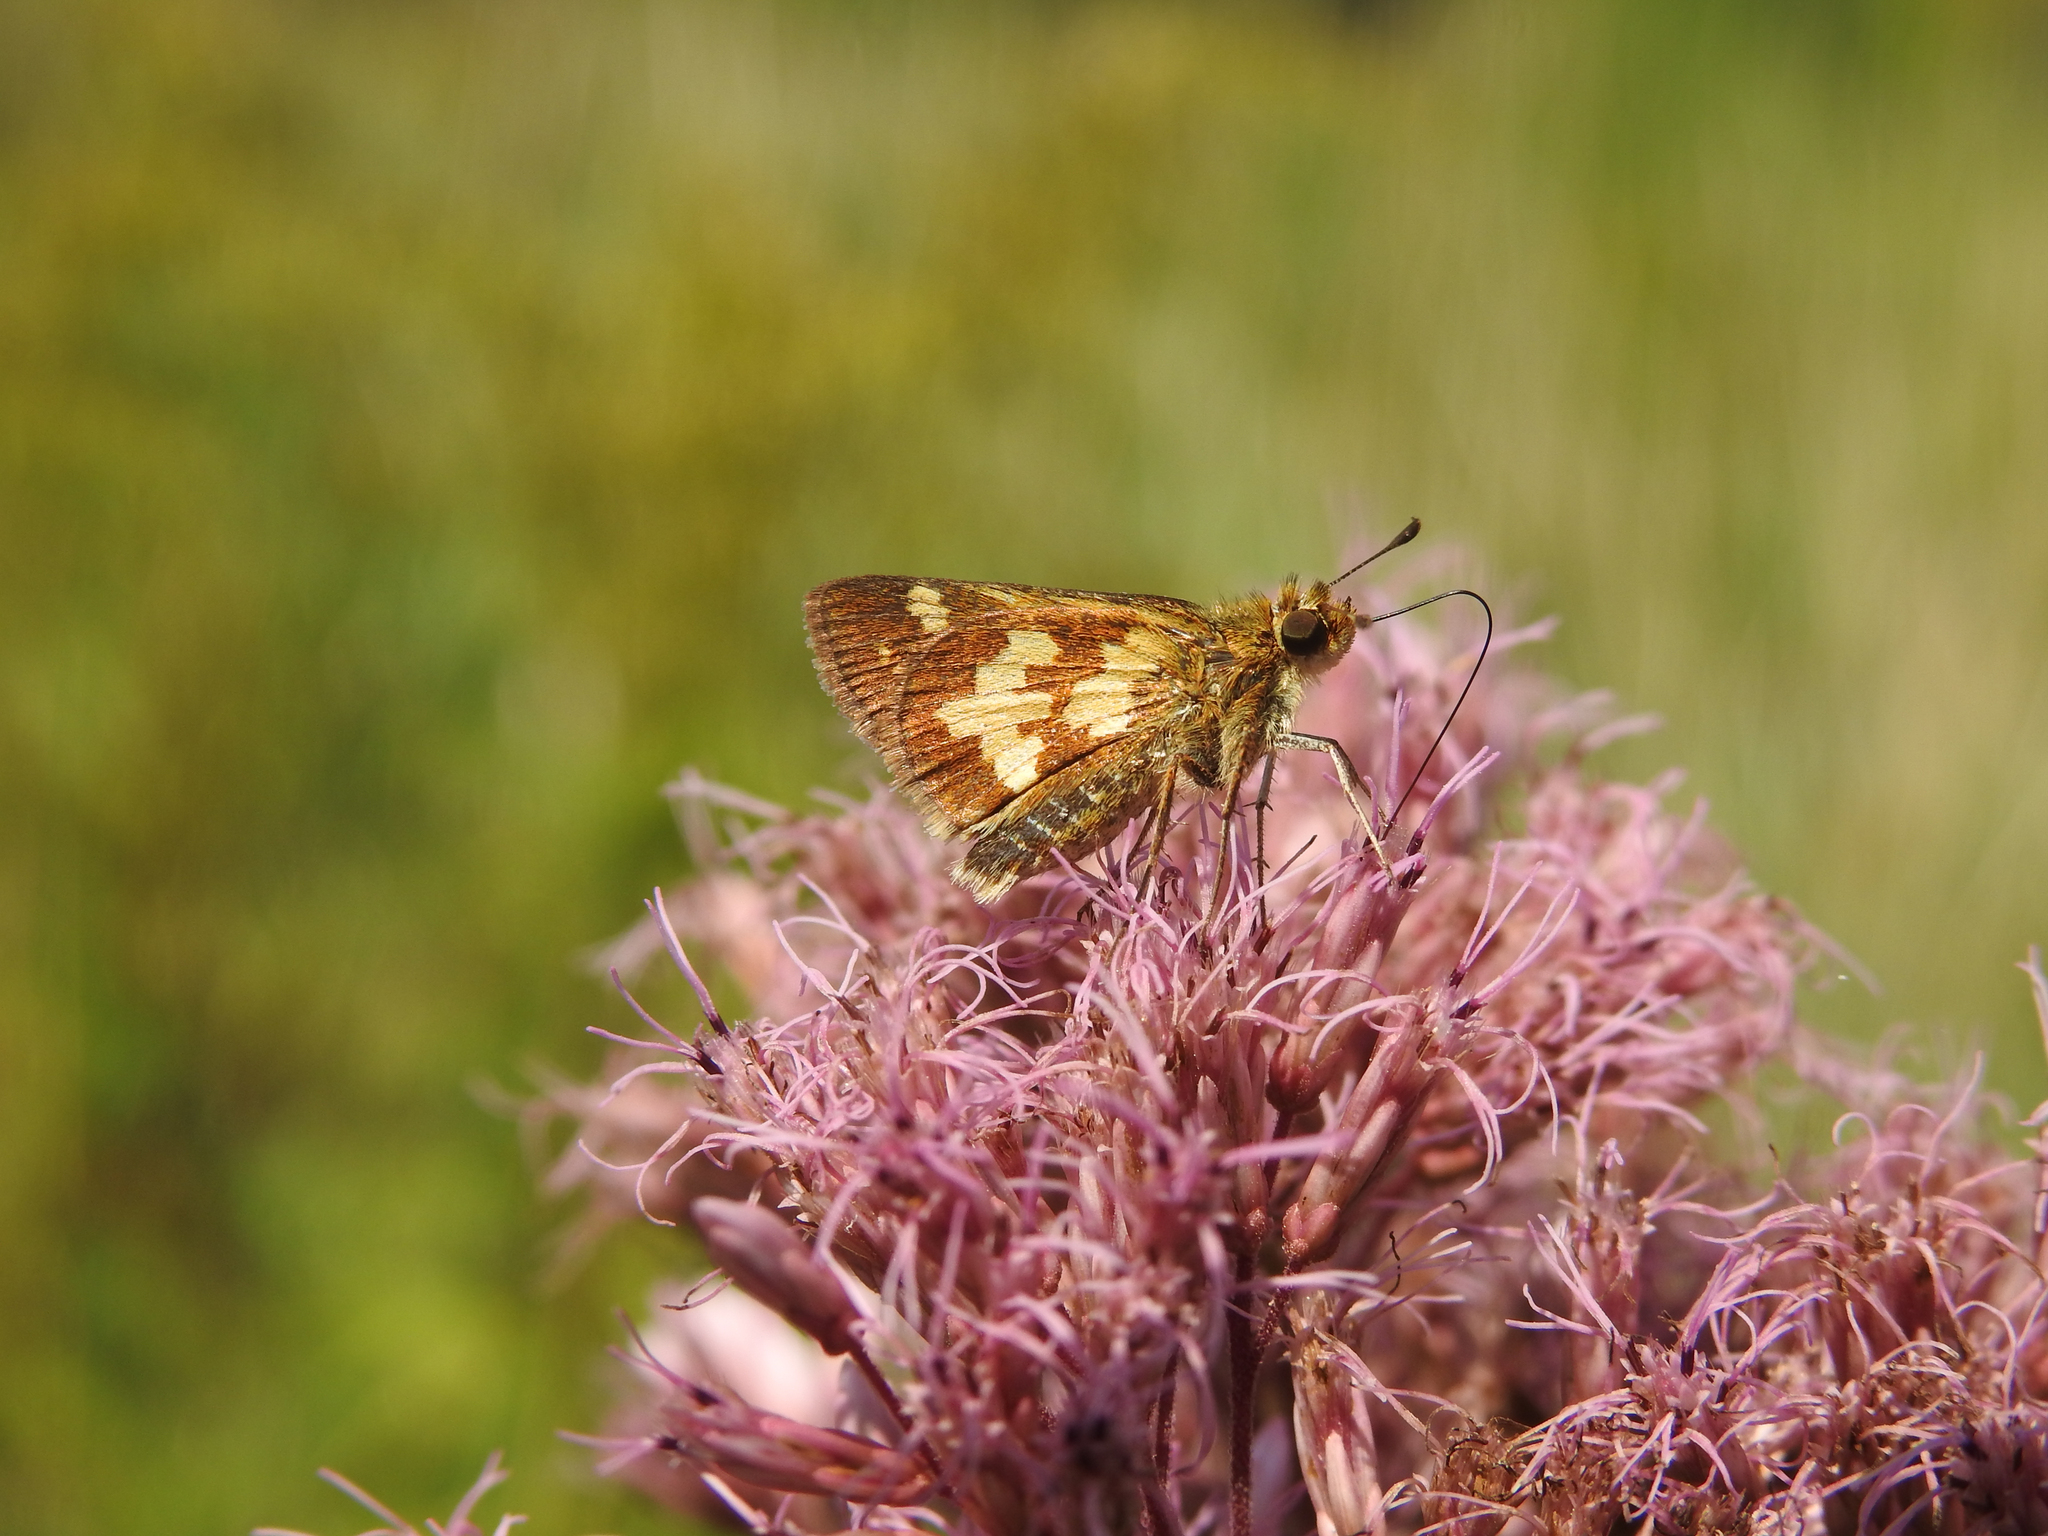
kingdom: Animalia
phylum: Arthropoda
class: Insecta
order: Lepidoptera
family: Hesperiidae
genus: Polites
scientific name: Polites coras
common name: Peck's skipper
